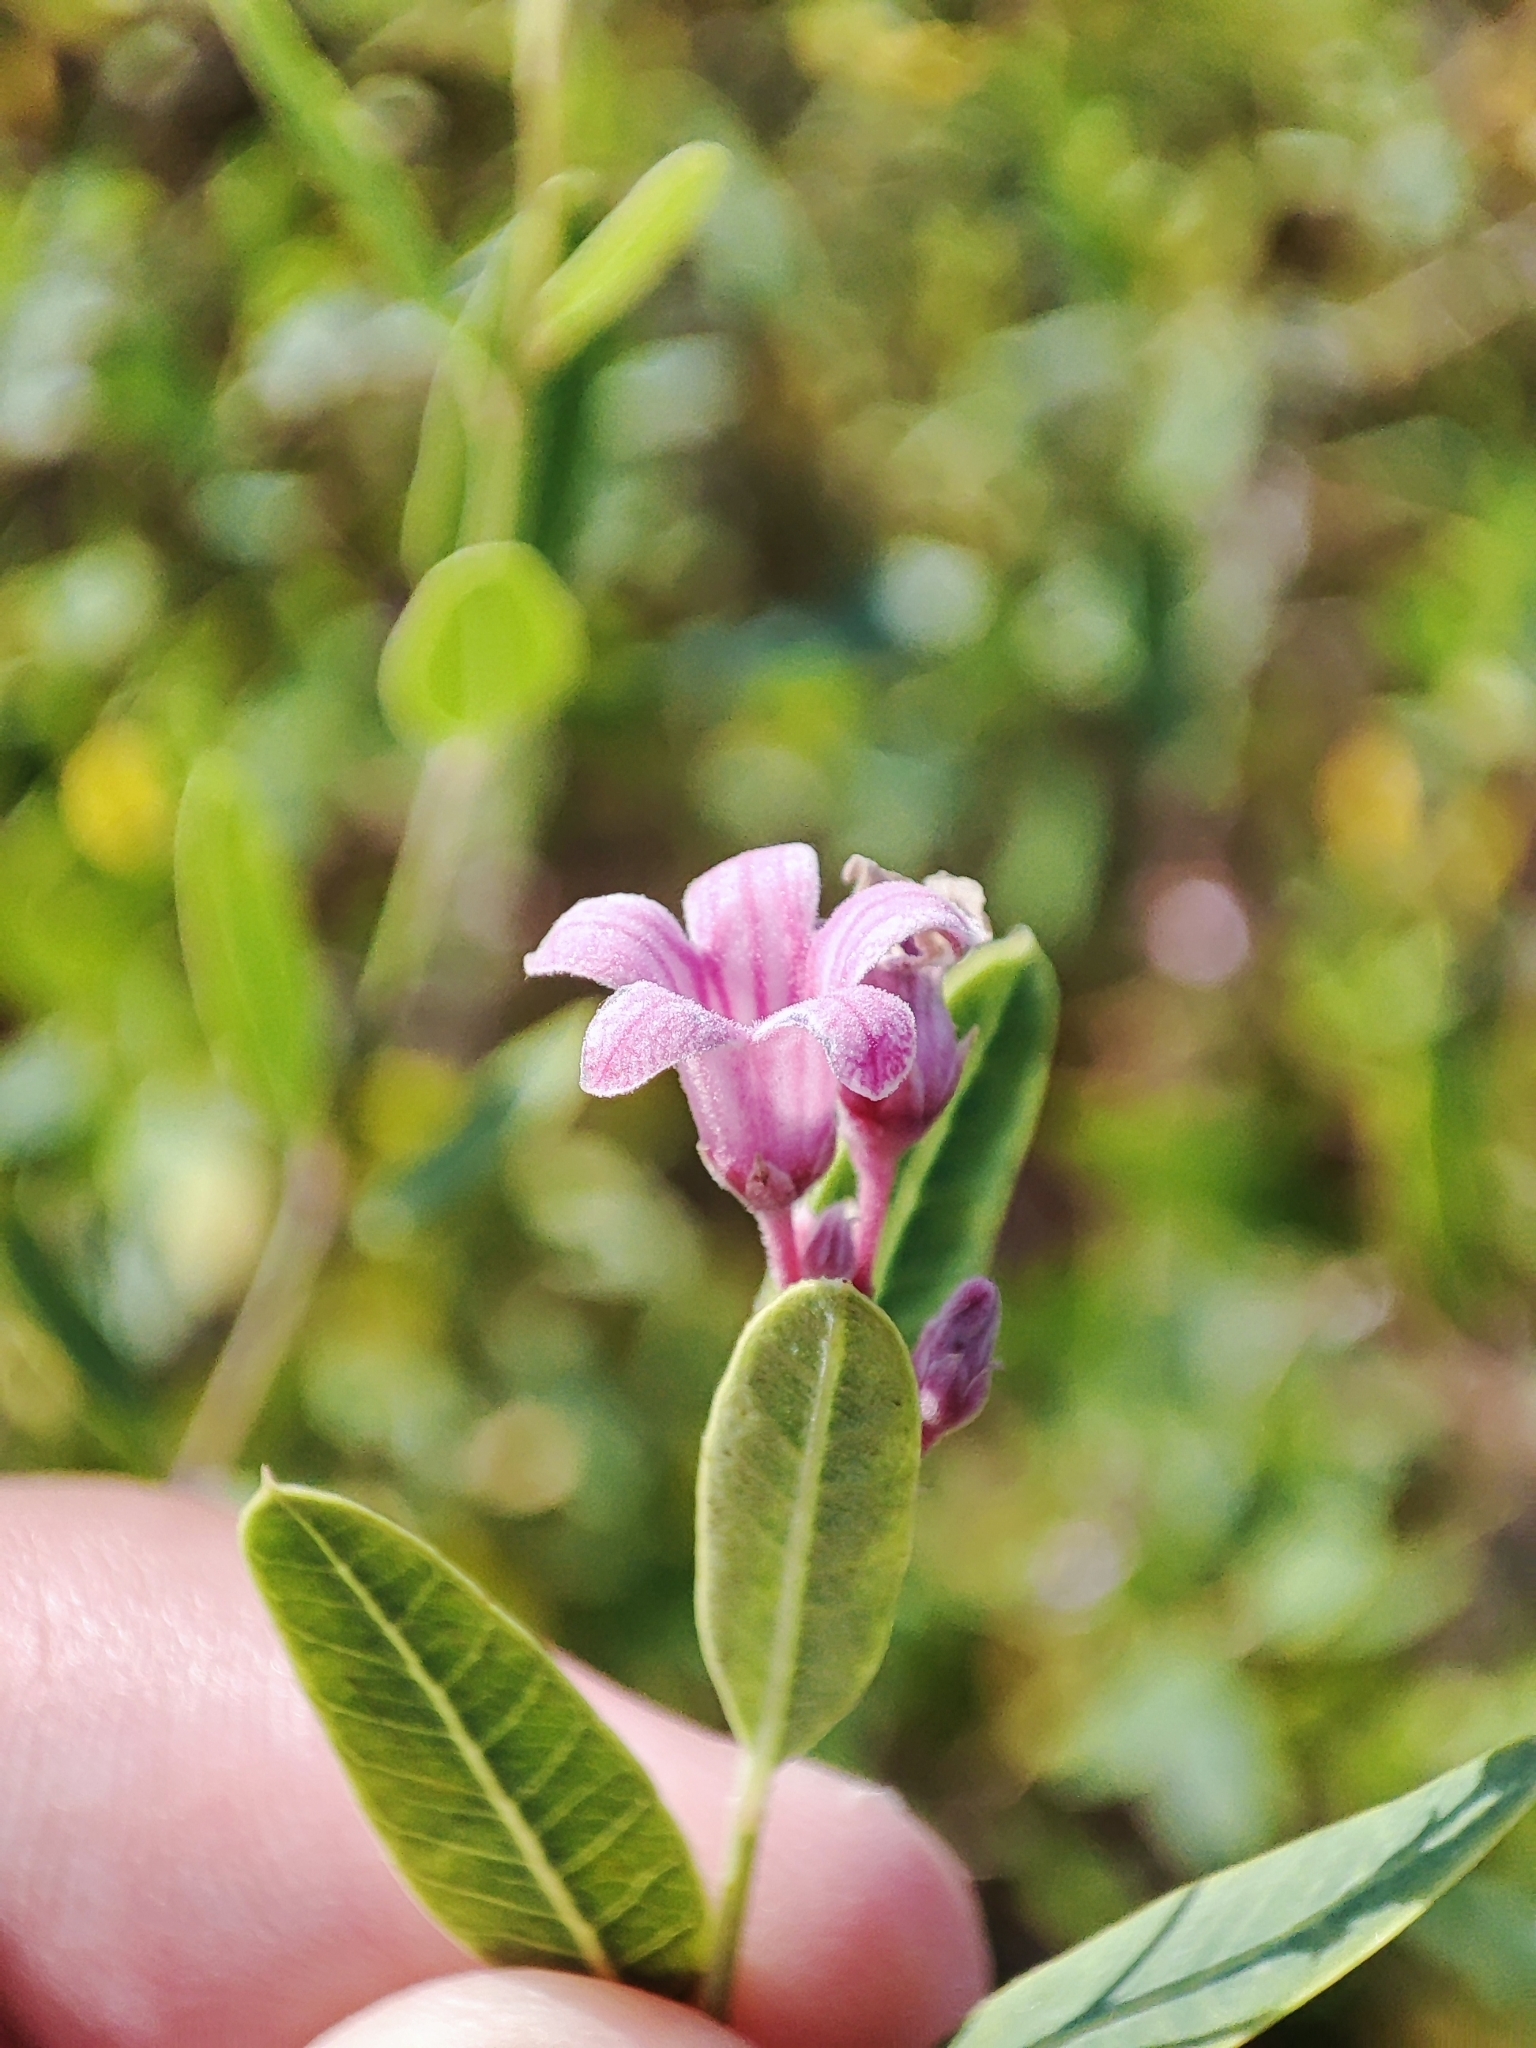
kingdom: Plantae
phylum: Tracheophyta
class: Magnoliopsida
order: Gentianales
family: Apocynaceae
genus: Poacynum
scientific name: Poacynum venetum
